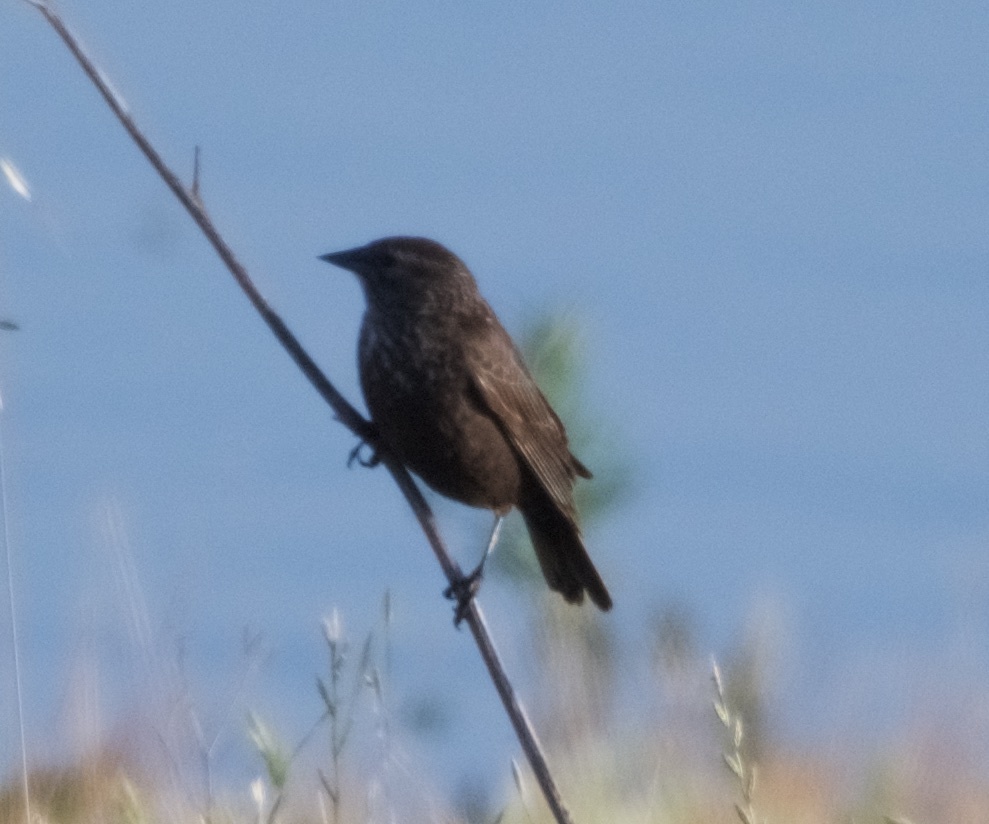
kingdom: Animalia
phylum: Chordata
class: Aves
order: Passeriformes
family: Icteridae
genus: Agelaius
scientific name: Agelaius phoeniceus
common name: Red-winged blackbird
